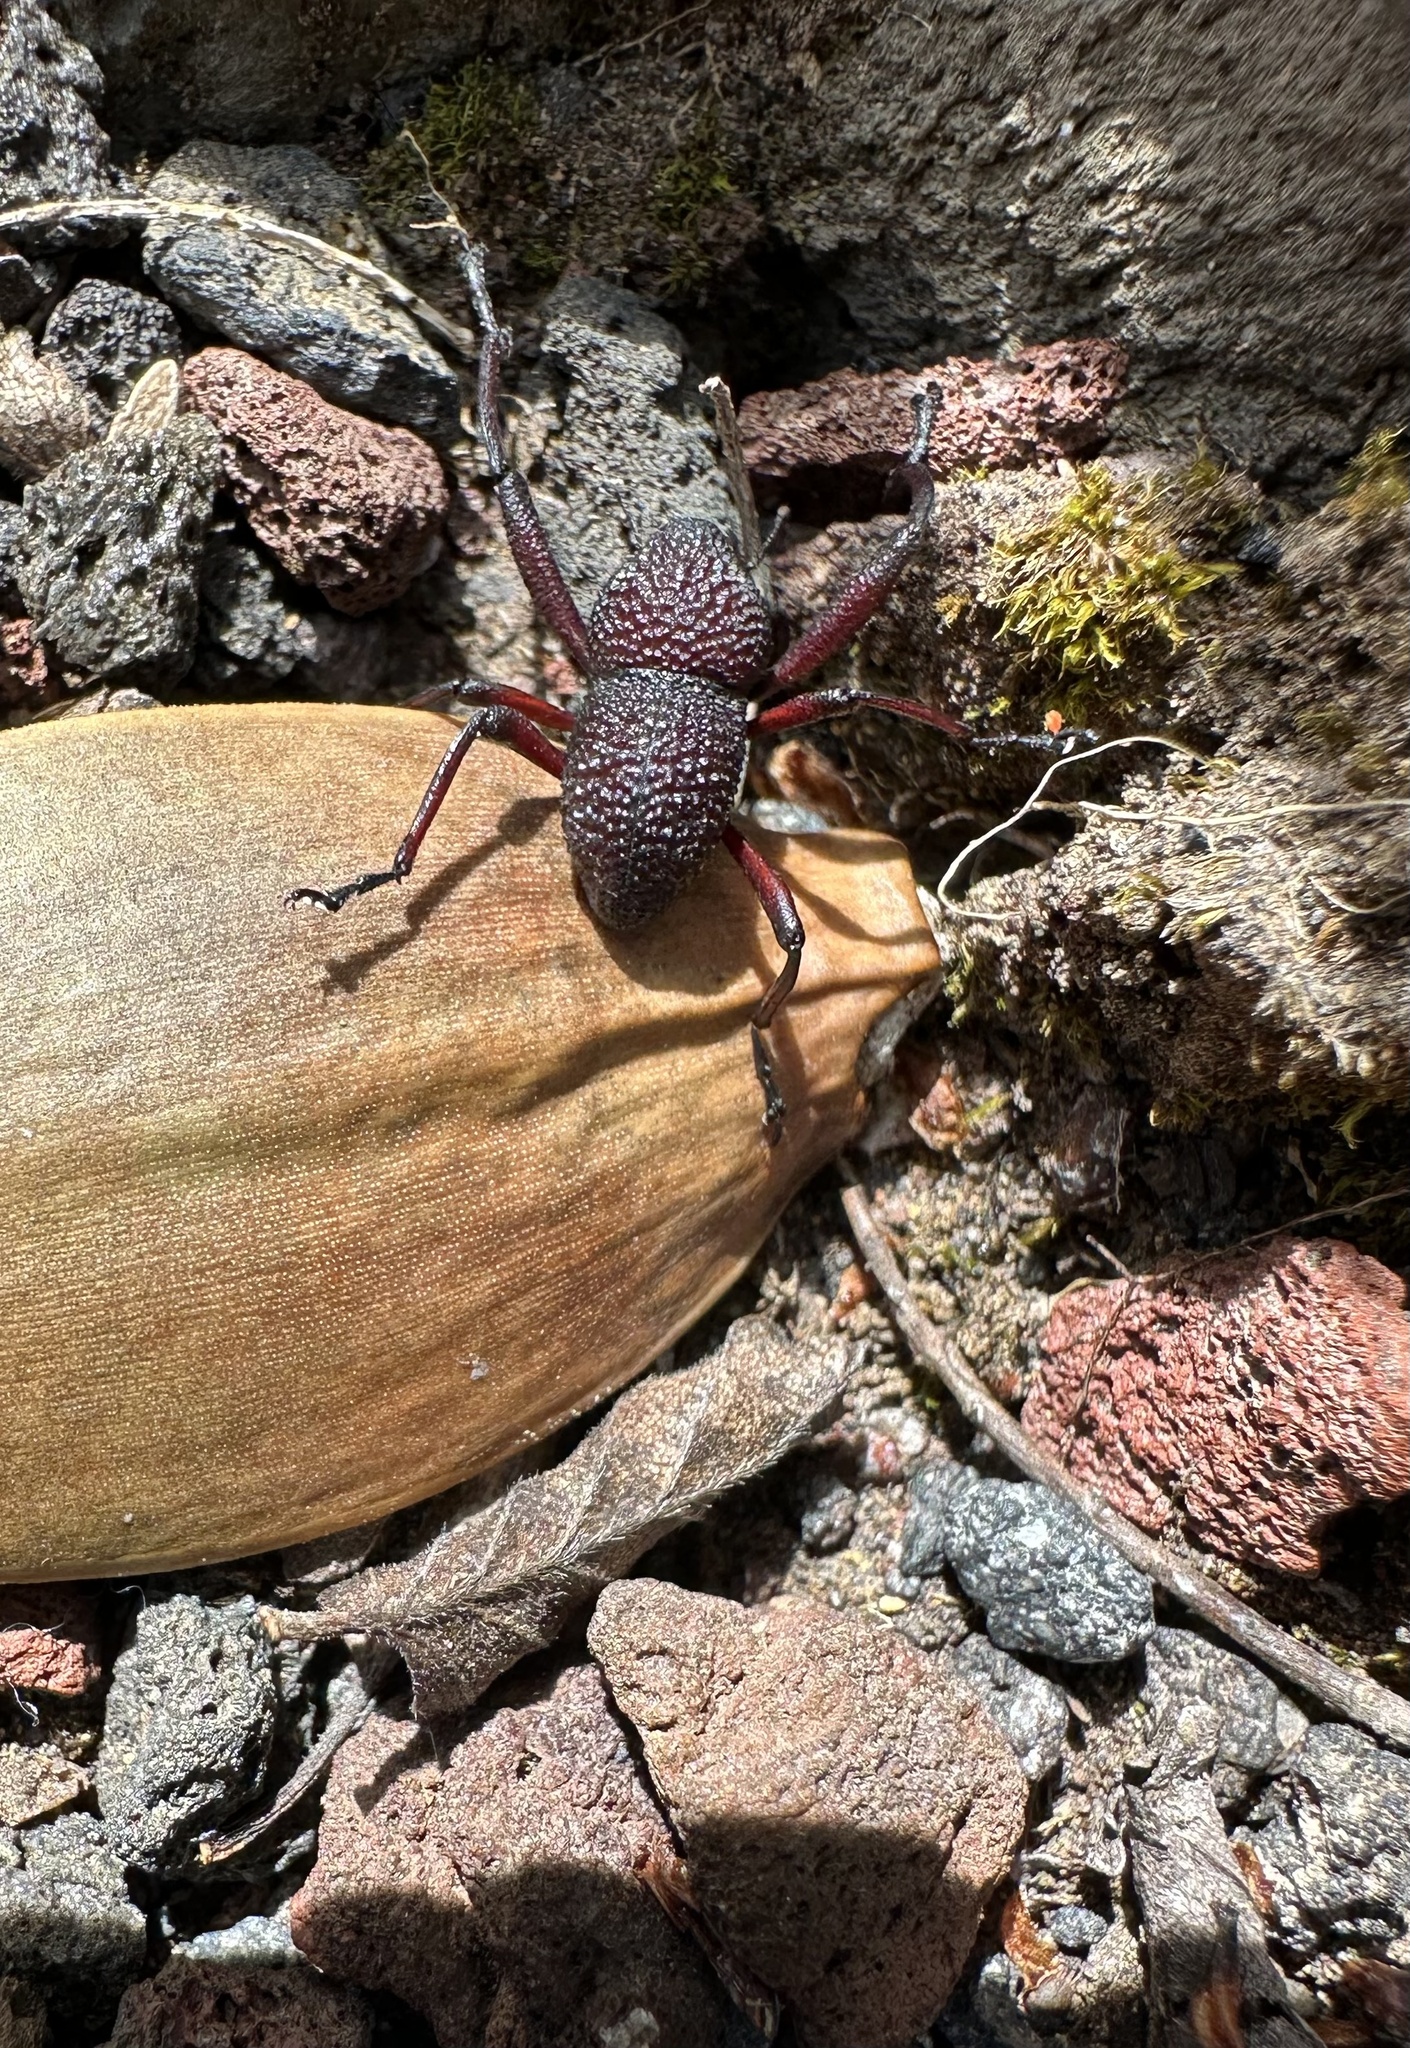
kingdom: Animalia
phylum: Arthropoda
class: Insecta
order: Coleoptera
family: Curculionidae
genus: Rhyephenes
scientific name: Rhyephenes maillei
